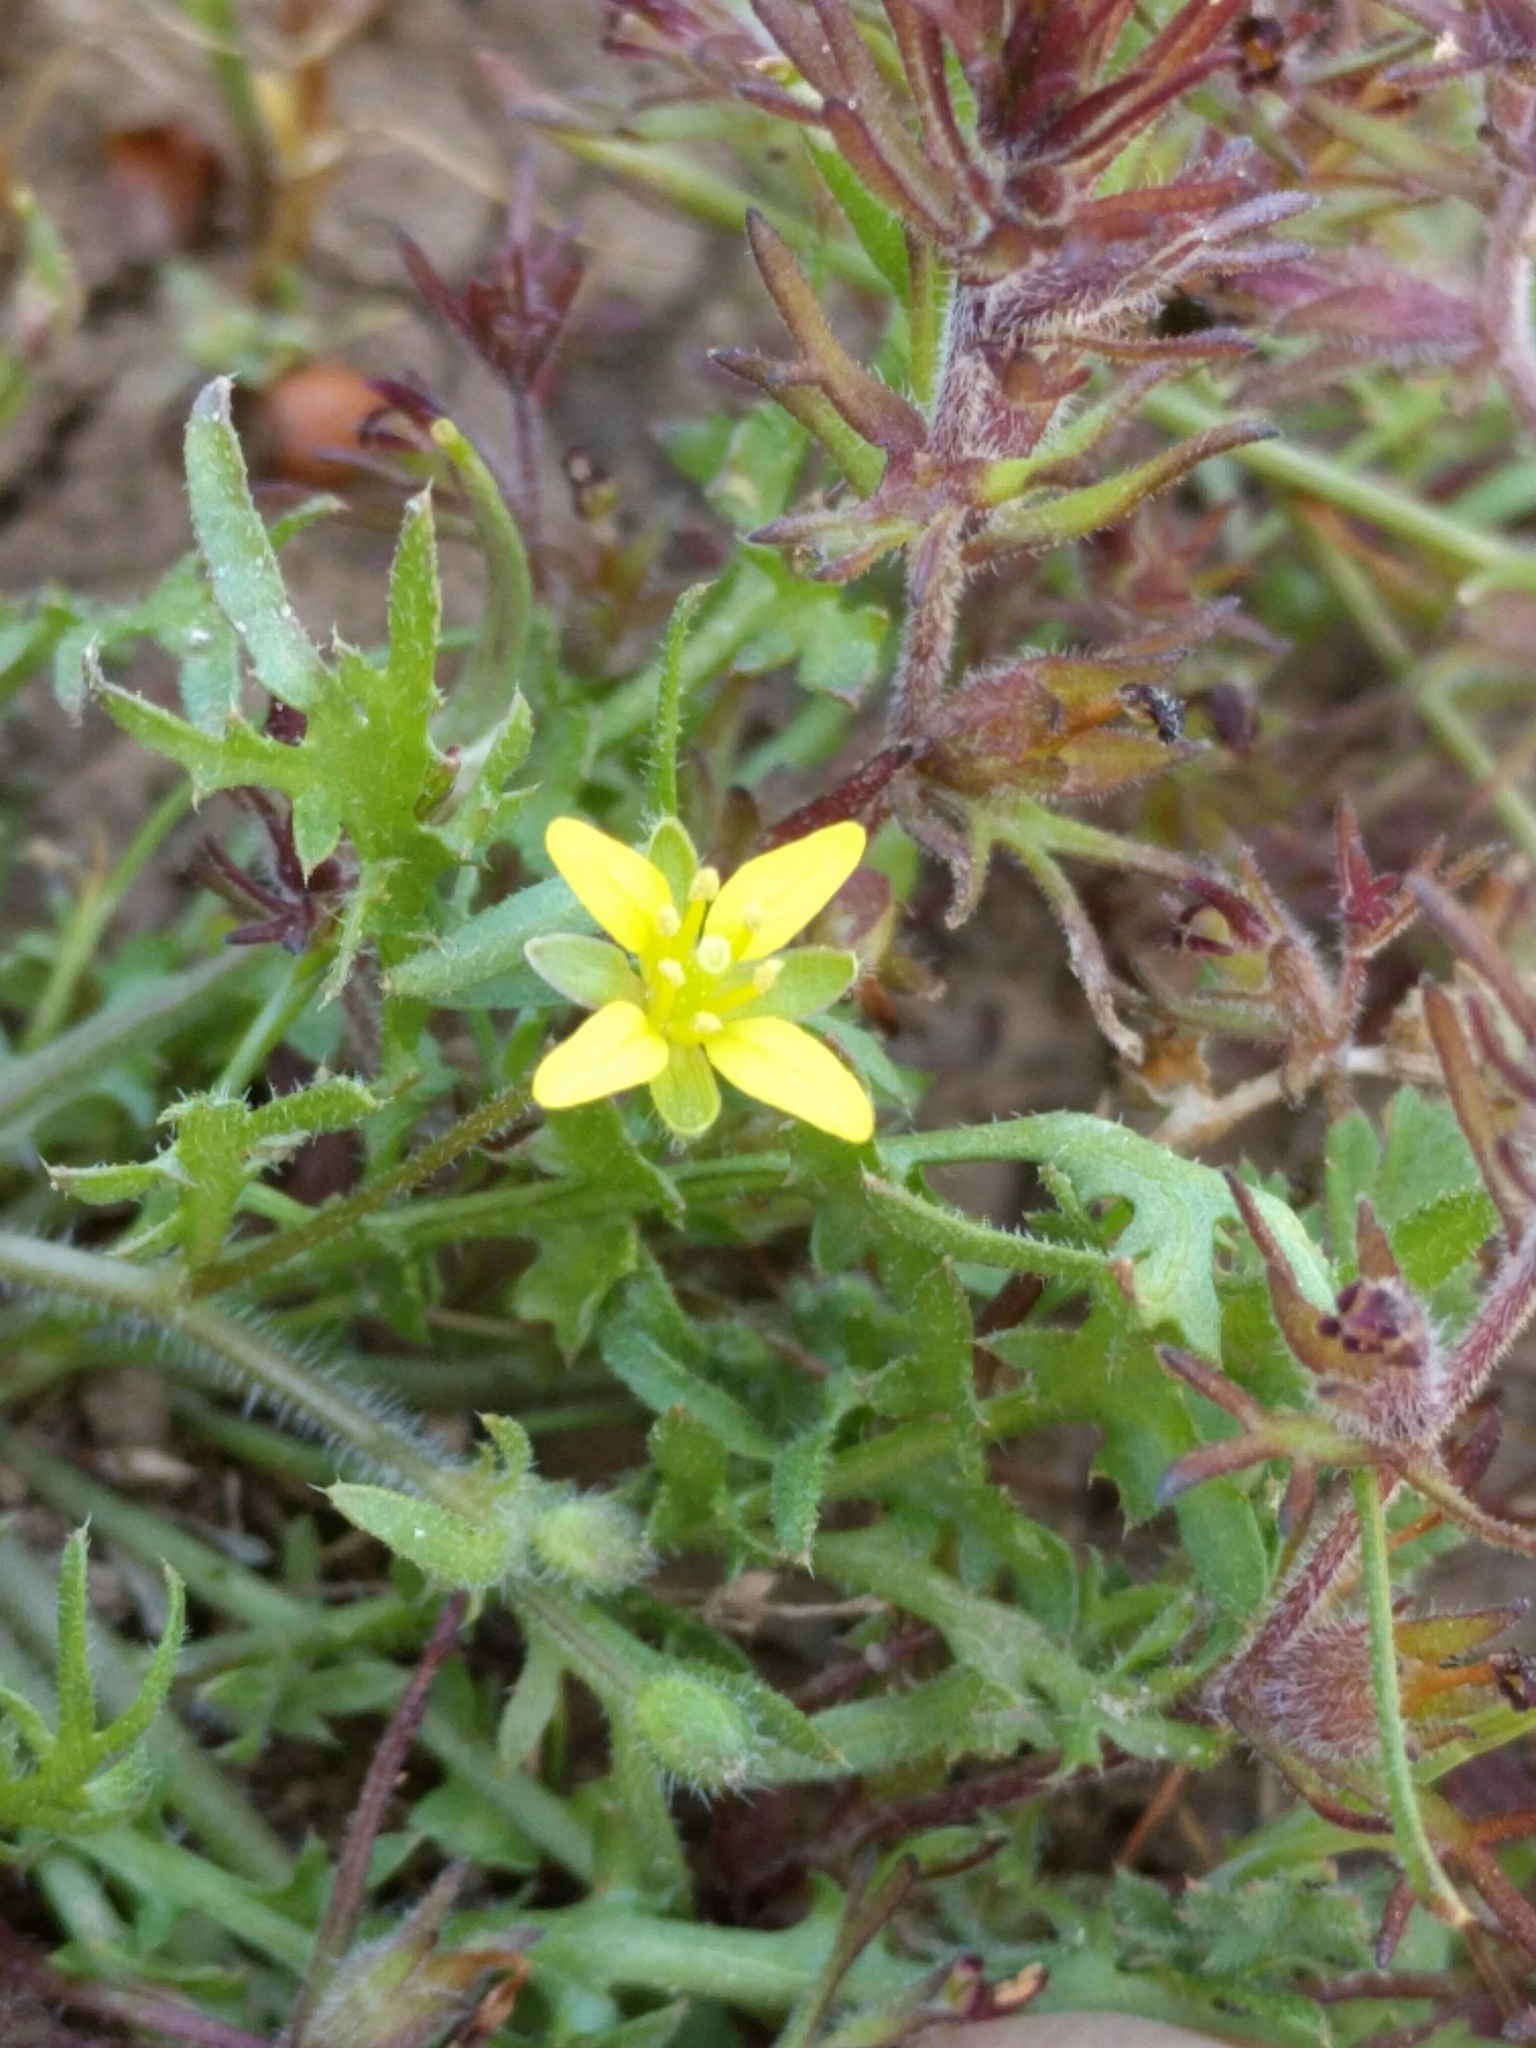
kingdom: Plantae
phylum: Tracheophyta
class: Magnoliopsida
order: Brassicales
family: Brassicaceae
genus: Tropidocarpum
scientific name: Tropidocarpum gracile
